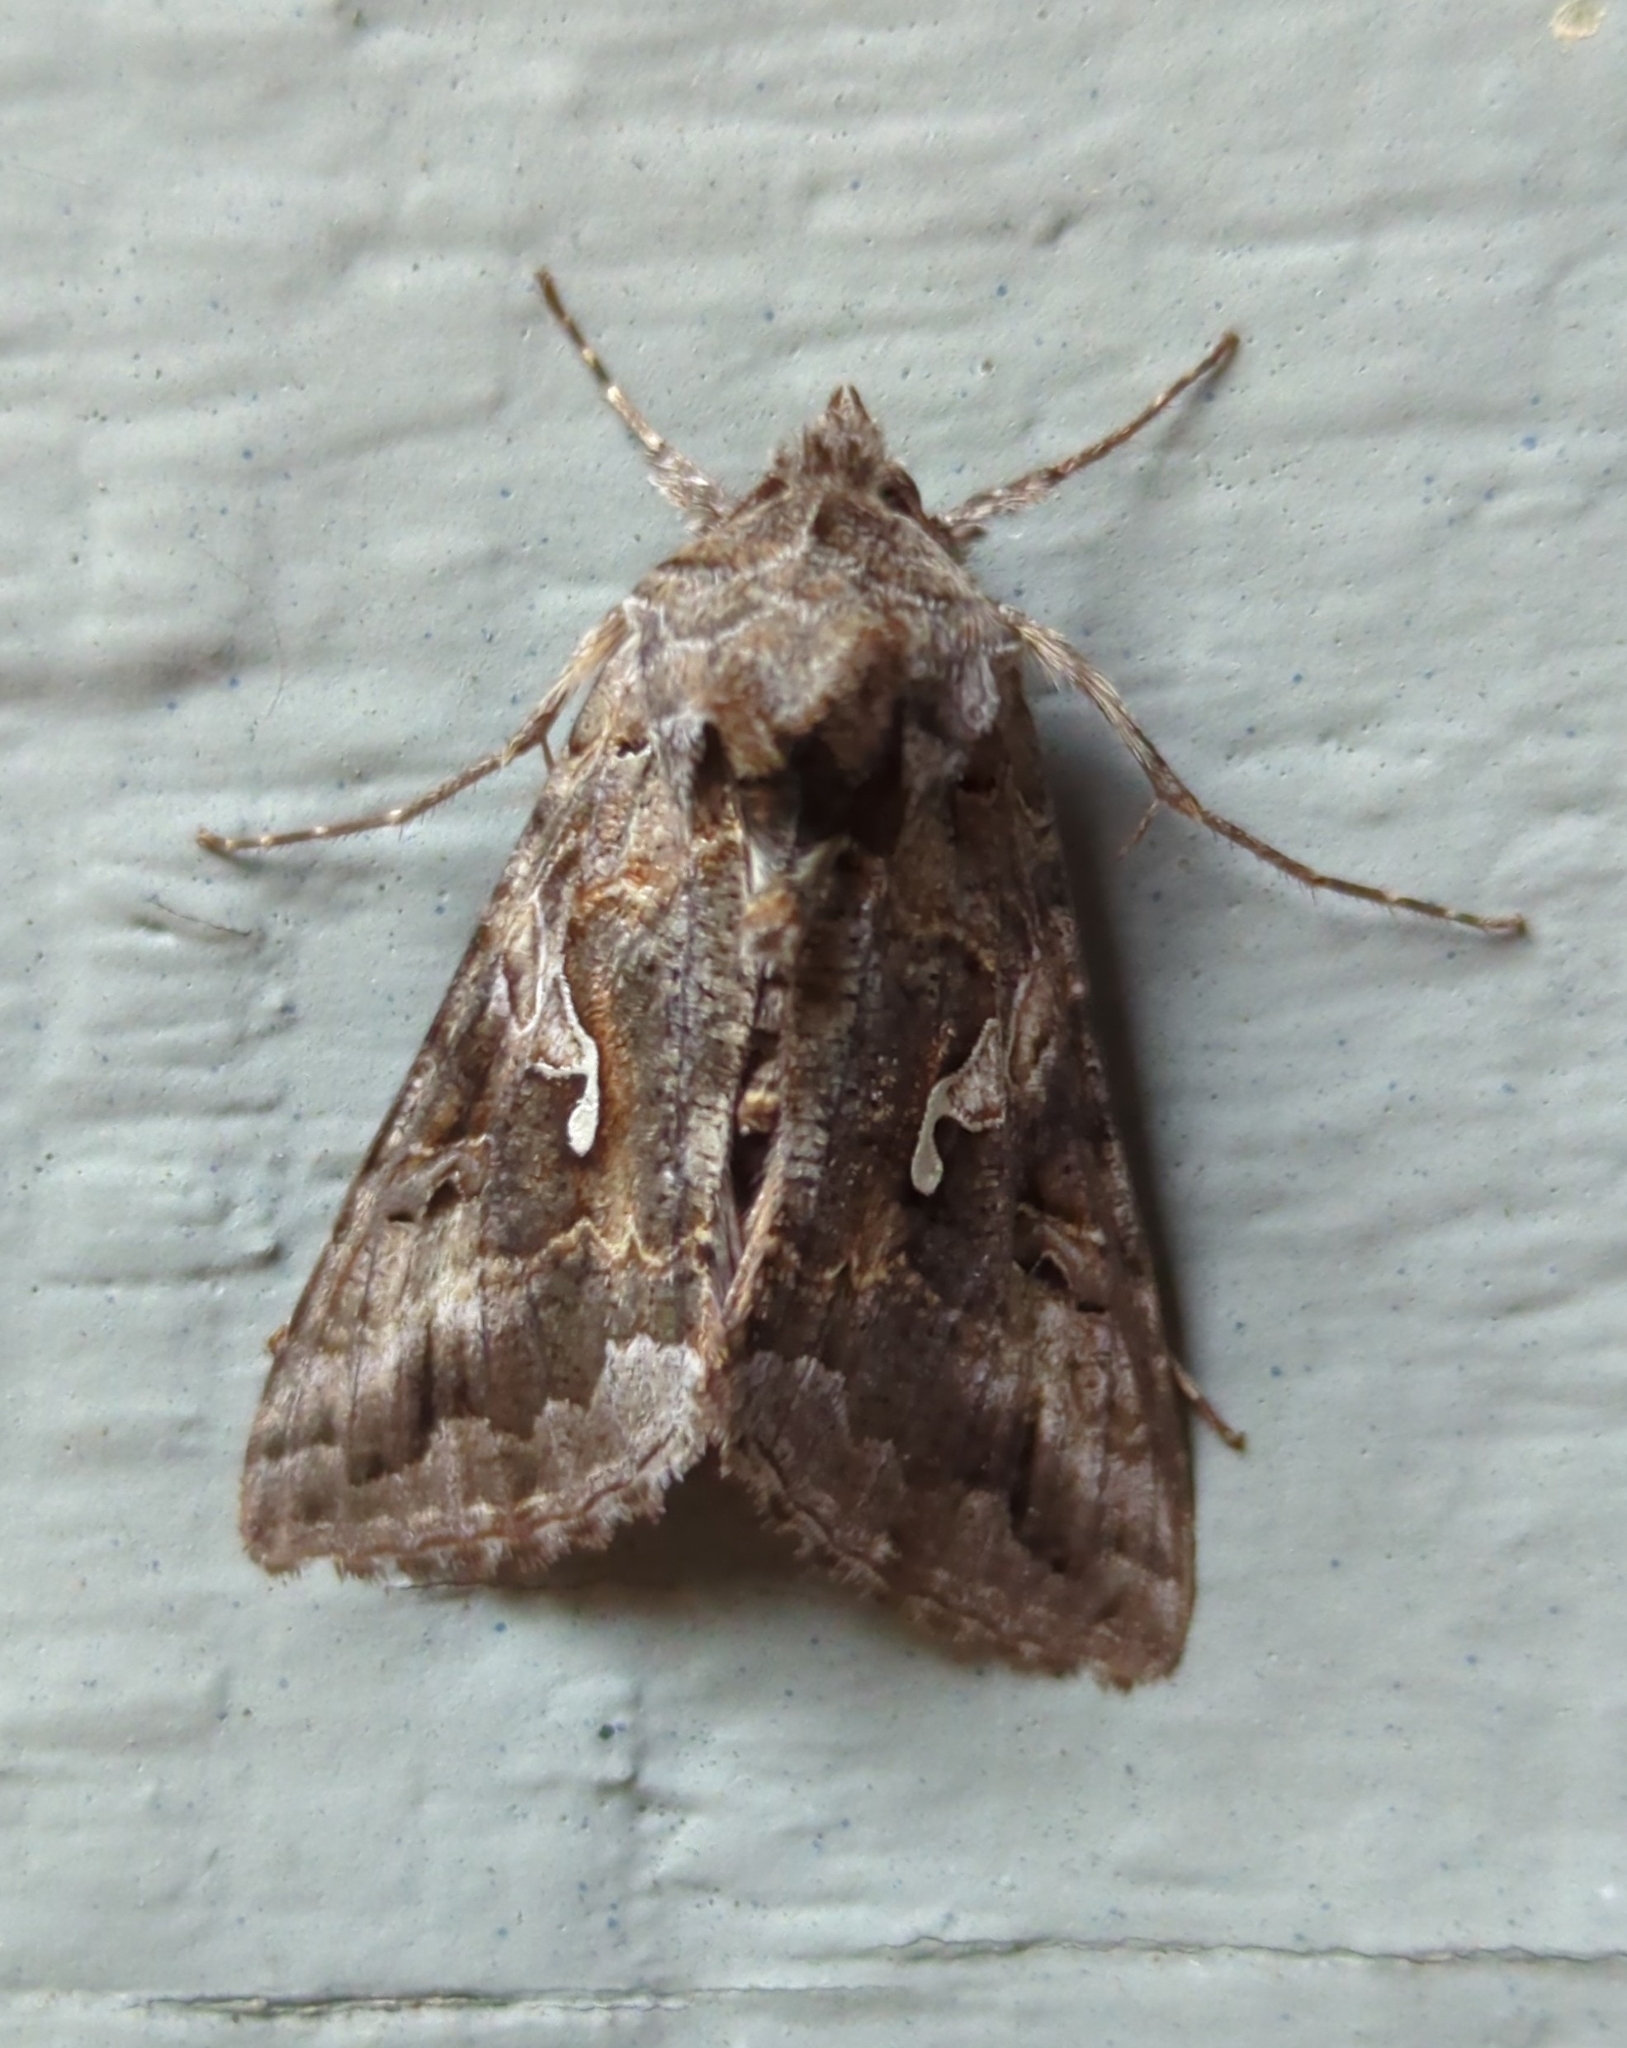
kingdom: Animalia
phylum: Arthropoda
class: Insecta
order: Lepidoptera
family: Noctuidae
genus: Autographa
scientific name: Autographa californica
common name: Alfalfa looper
